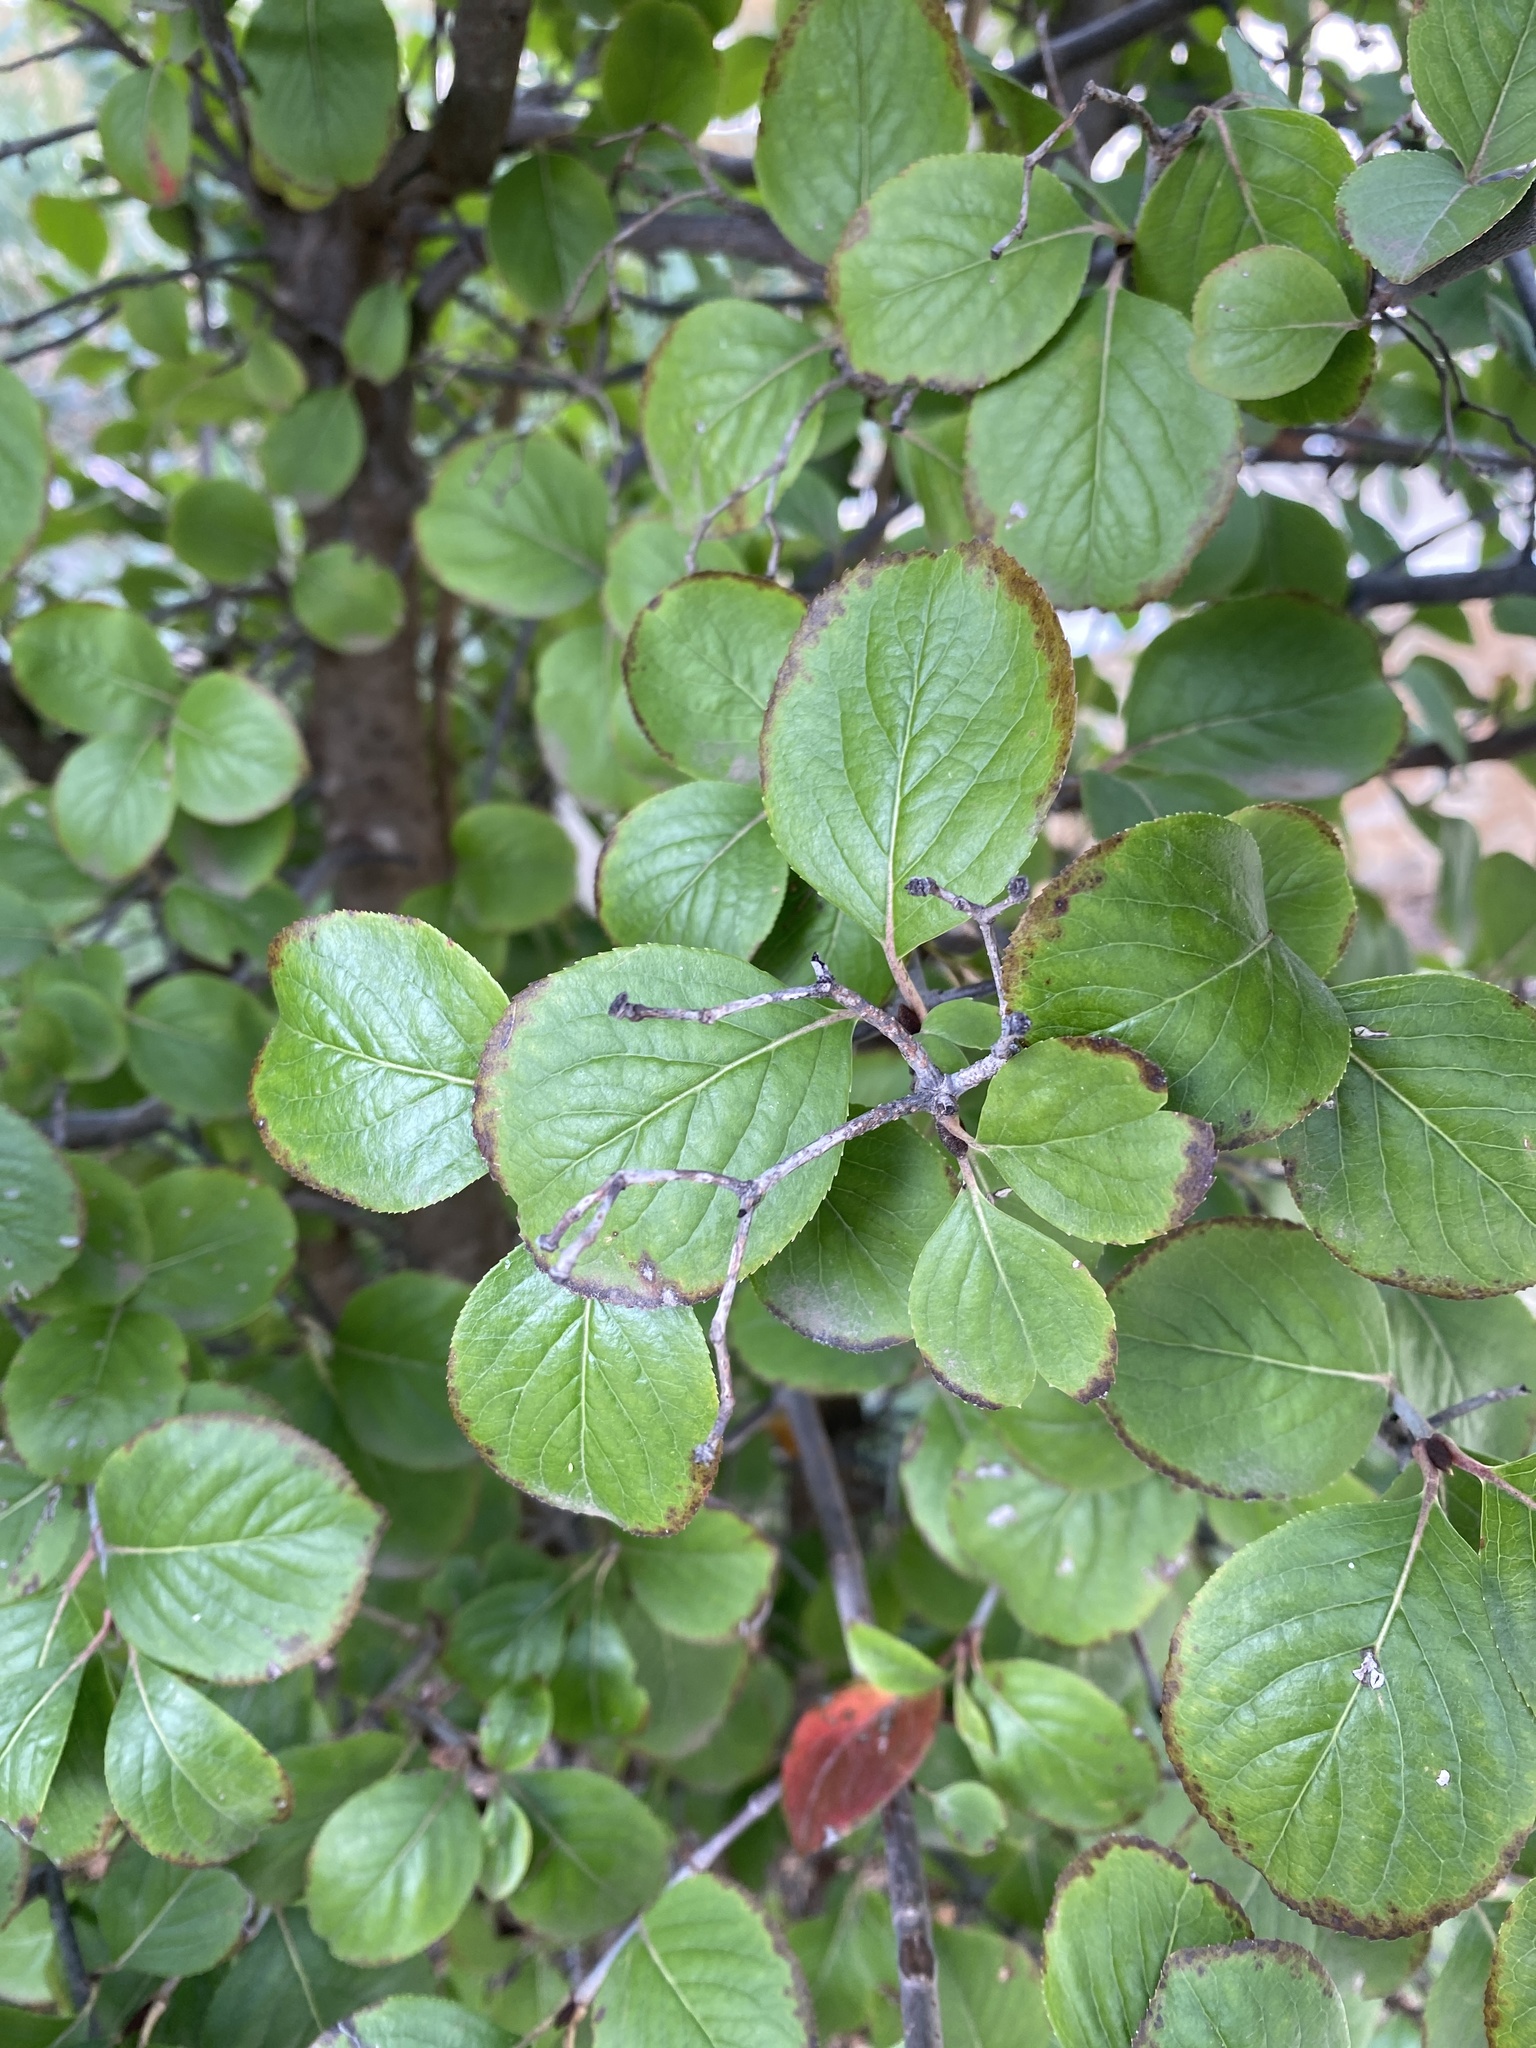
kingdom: Plantae
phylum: Tracheophyta
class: Magnoliopsida
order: Dipsacales
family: Viburnaceae
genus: Viburnum
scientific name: Viburnum rufidulum
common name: Blue haw
